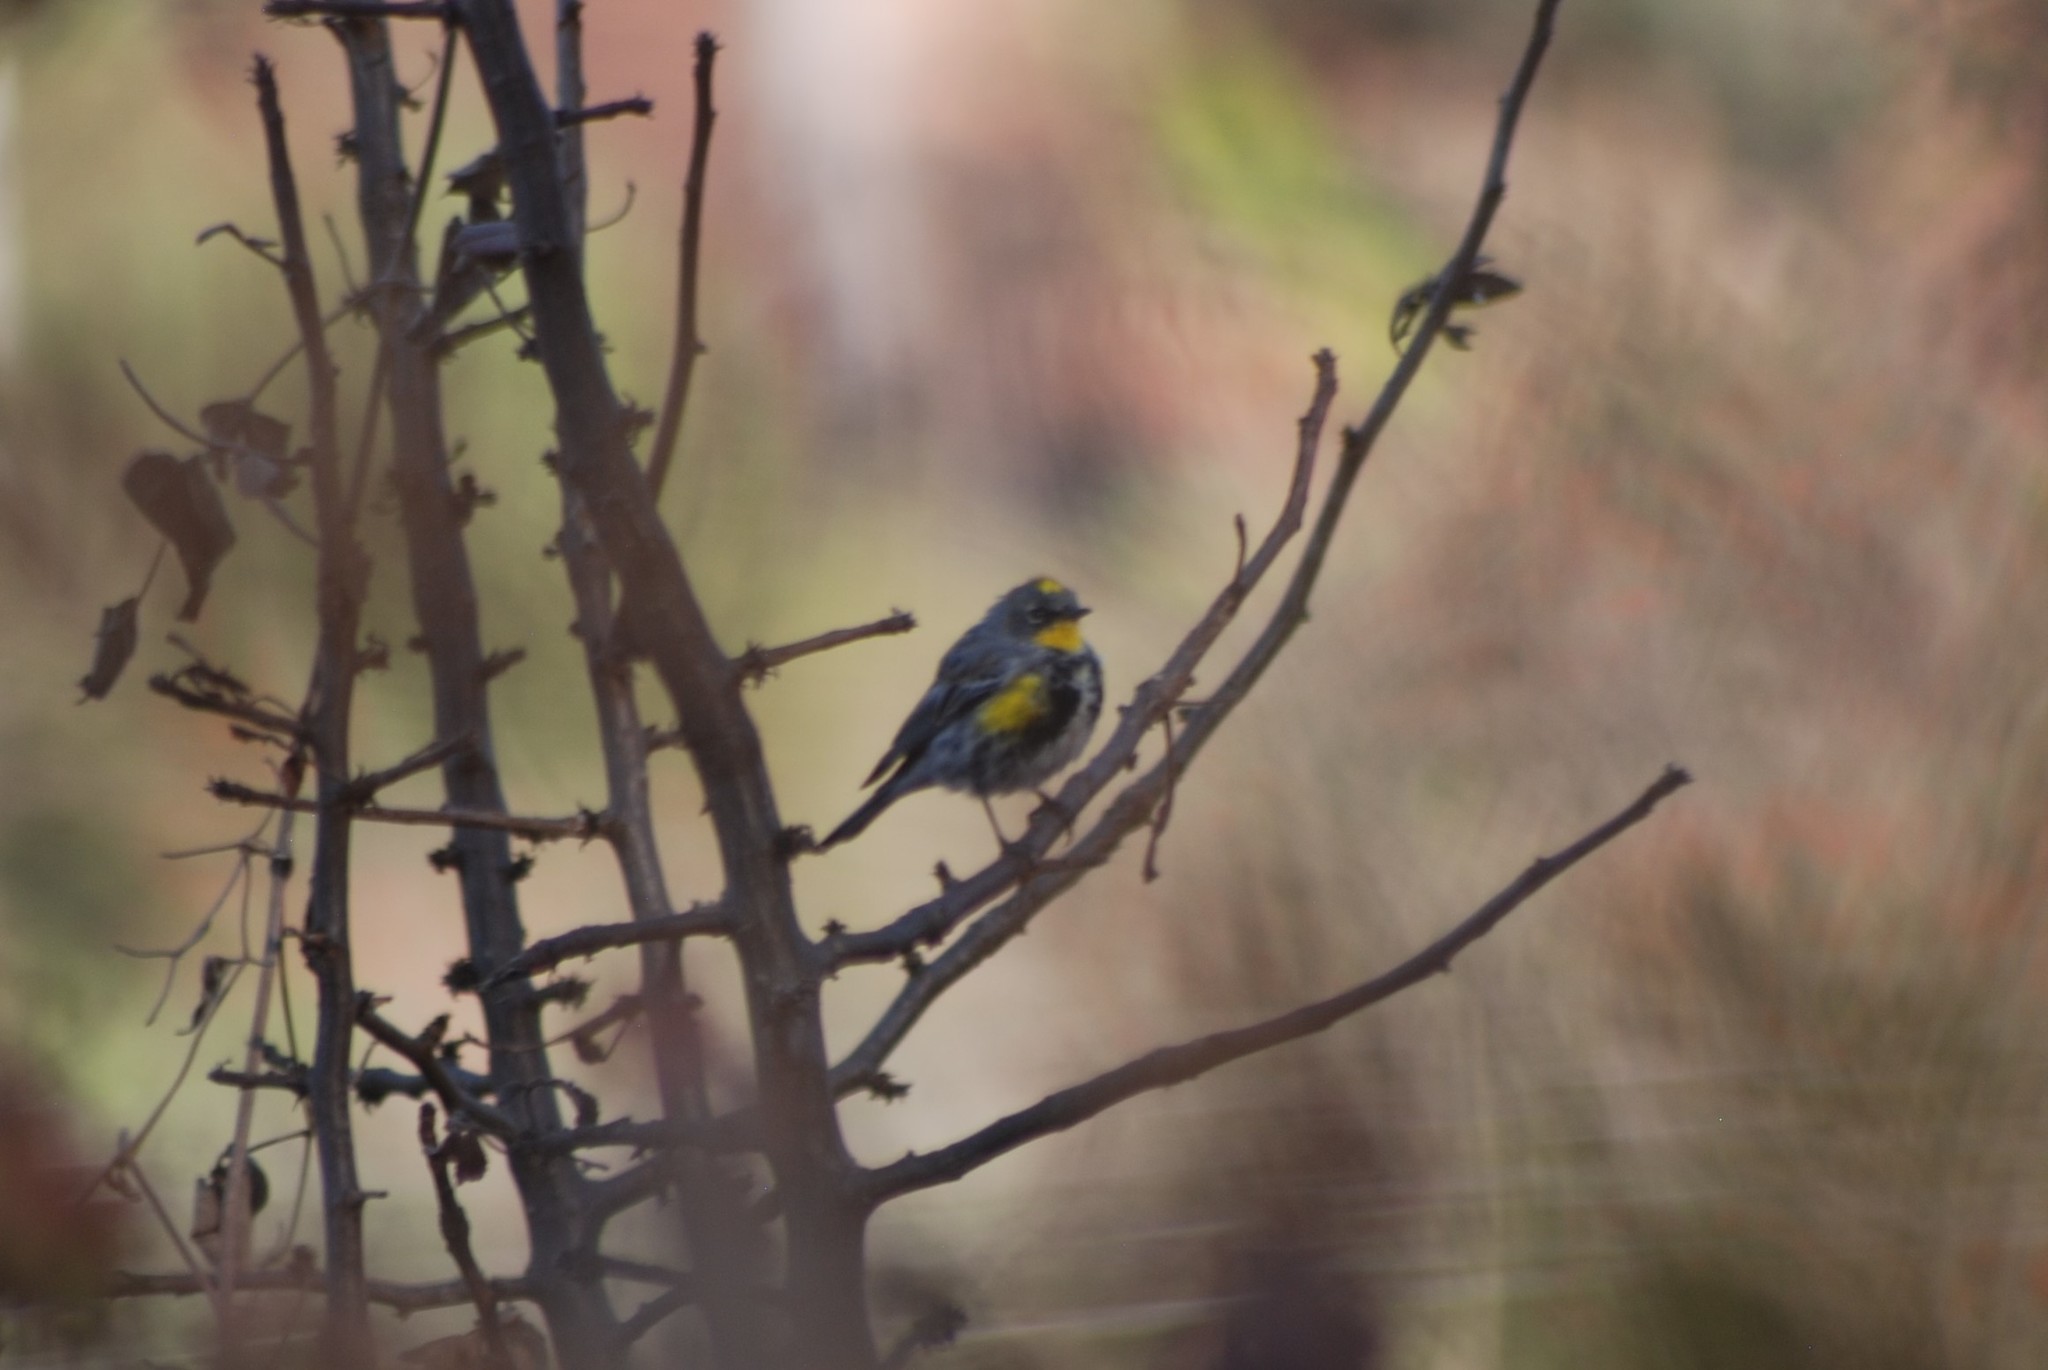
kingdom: Animalia
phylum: Chordata
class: Aves
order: Passeriformes
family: Parulidae
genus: Setophaga
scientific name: Setophaga coronata
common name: Myrtle warbler
